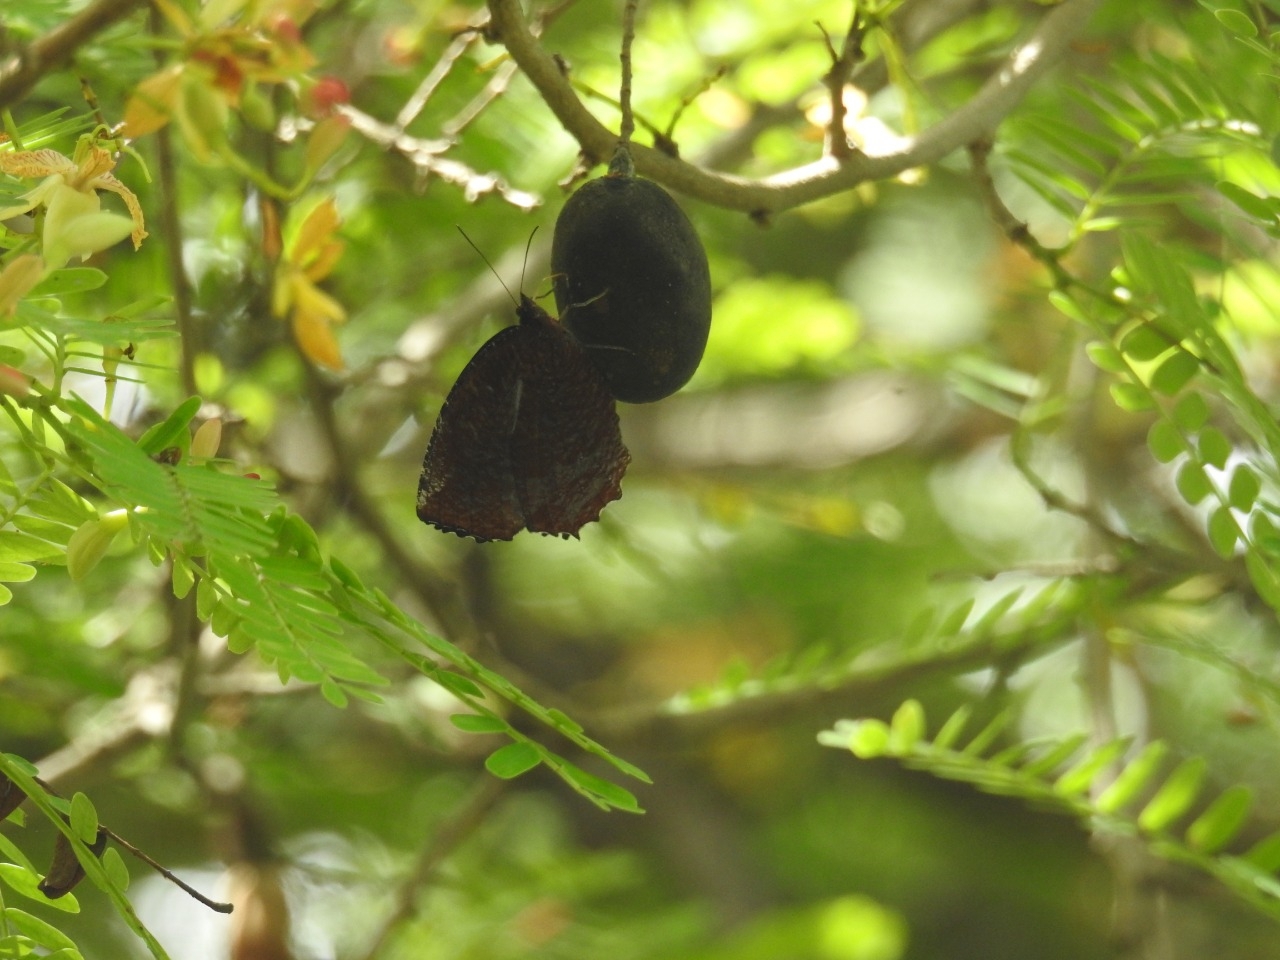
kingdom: Animalia
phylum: Arthropoda
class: Insecta
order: Lepidoptera
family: Nymphalidae
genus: Elymnias
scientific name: Elymnias hypermnestra
